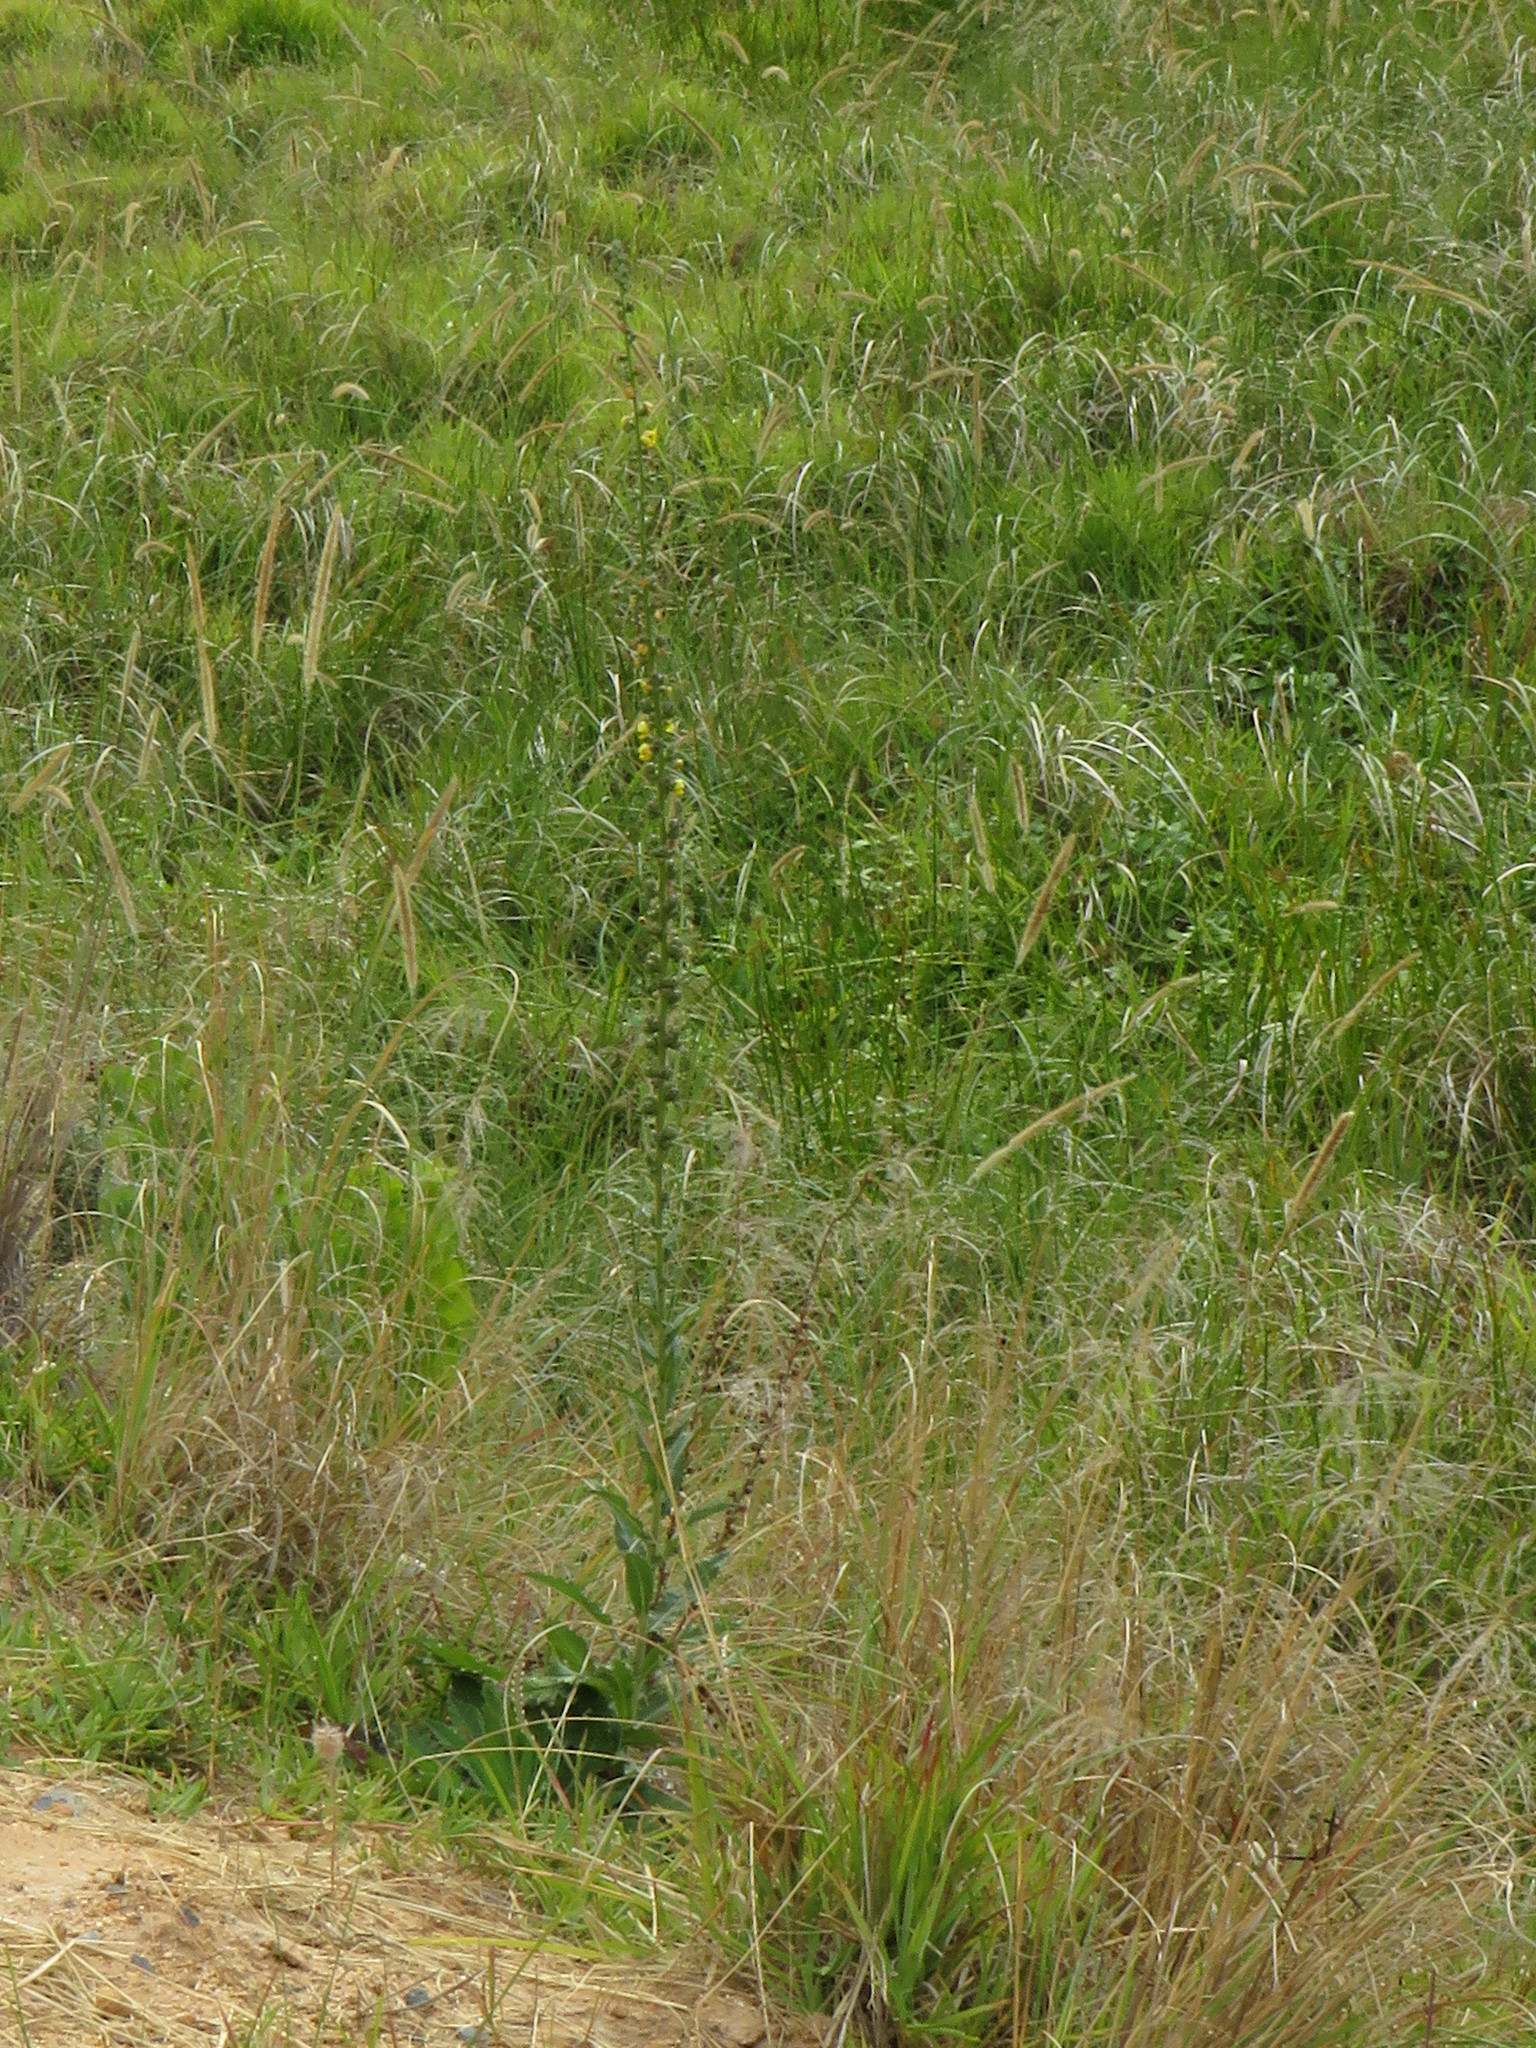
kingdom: Plantae
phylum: Tracheophyta
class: Magnoliopsida
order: Lamiales
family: Scrophulariaceae
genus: Verbascum
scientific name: Verbascum virgatum
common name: Twiggy mullein
